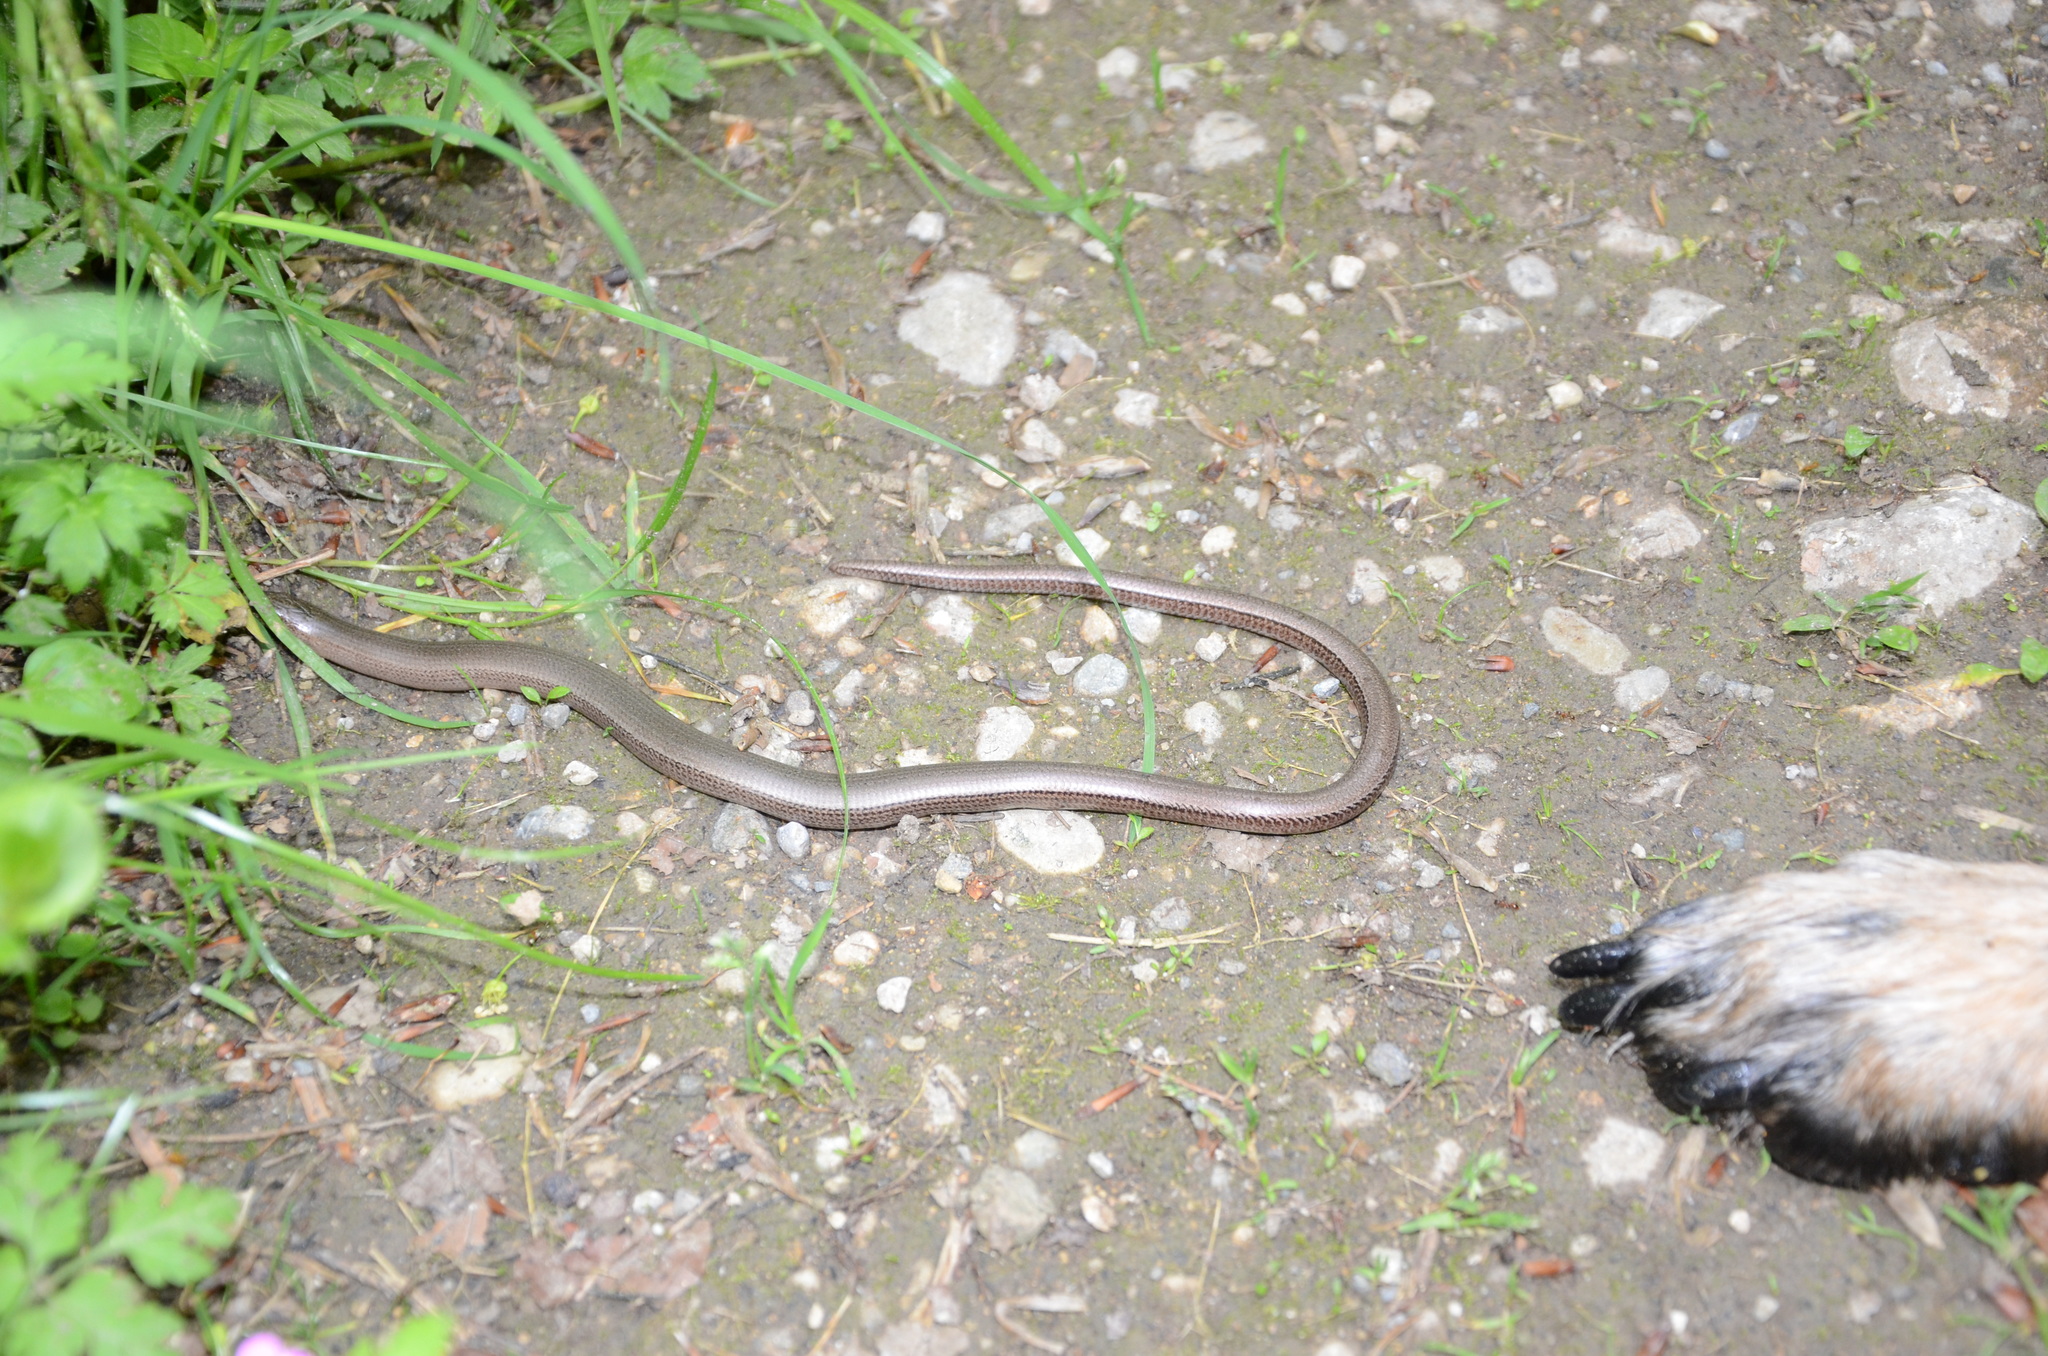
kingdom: Animalia
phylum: Chordata
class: Squamata
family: Anguidae
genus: Anguis
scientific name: Anguis fragilis
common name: Slow worm
